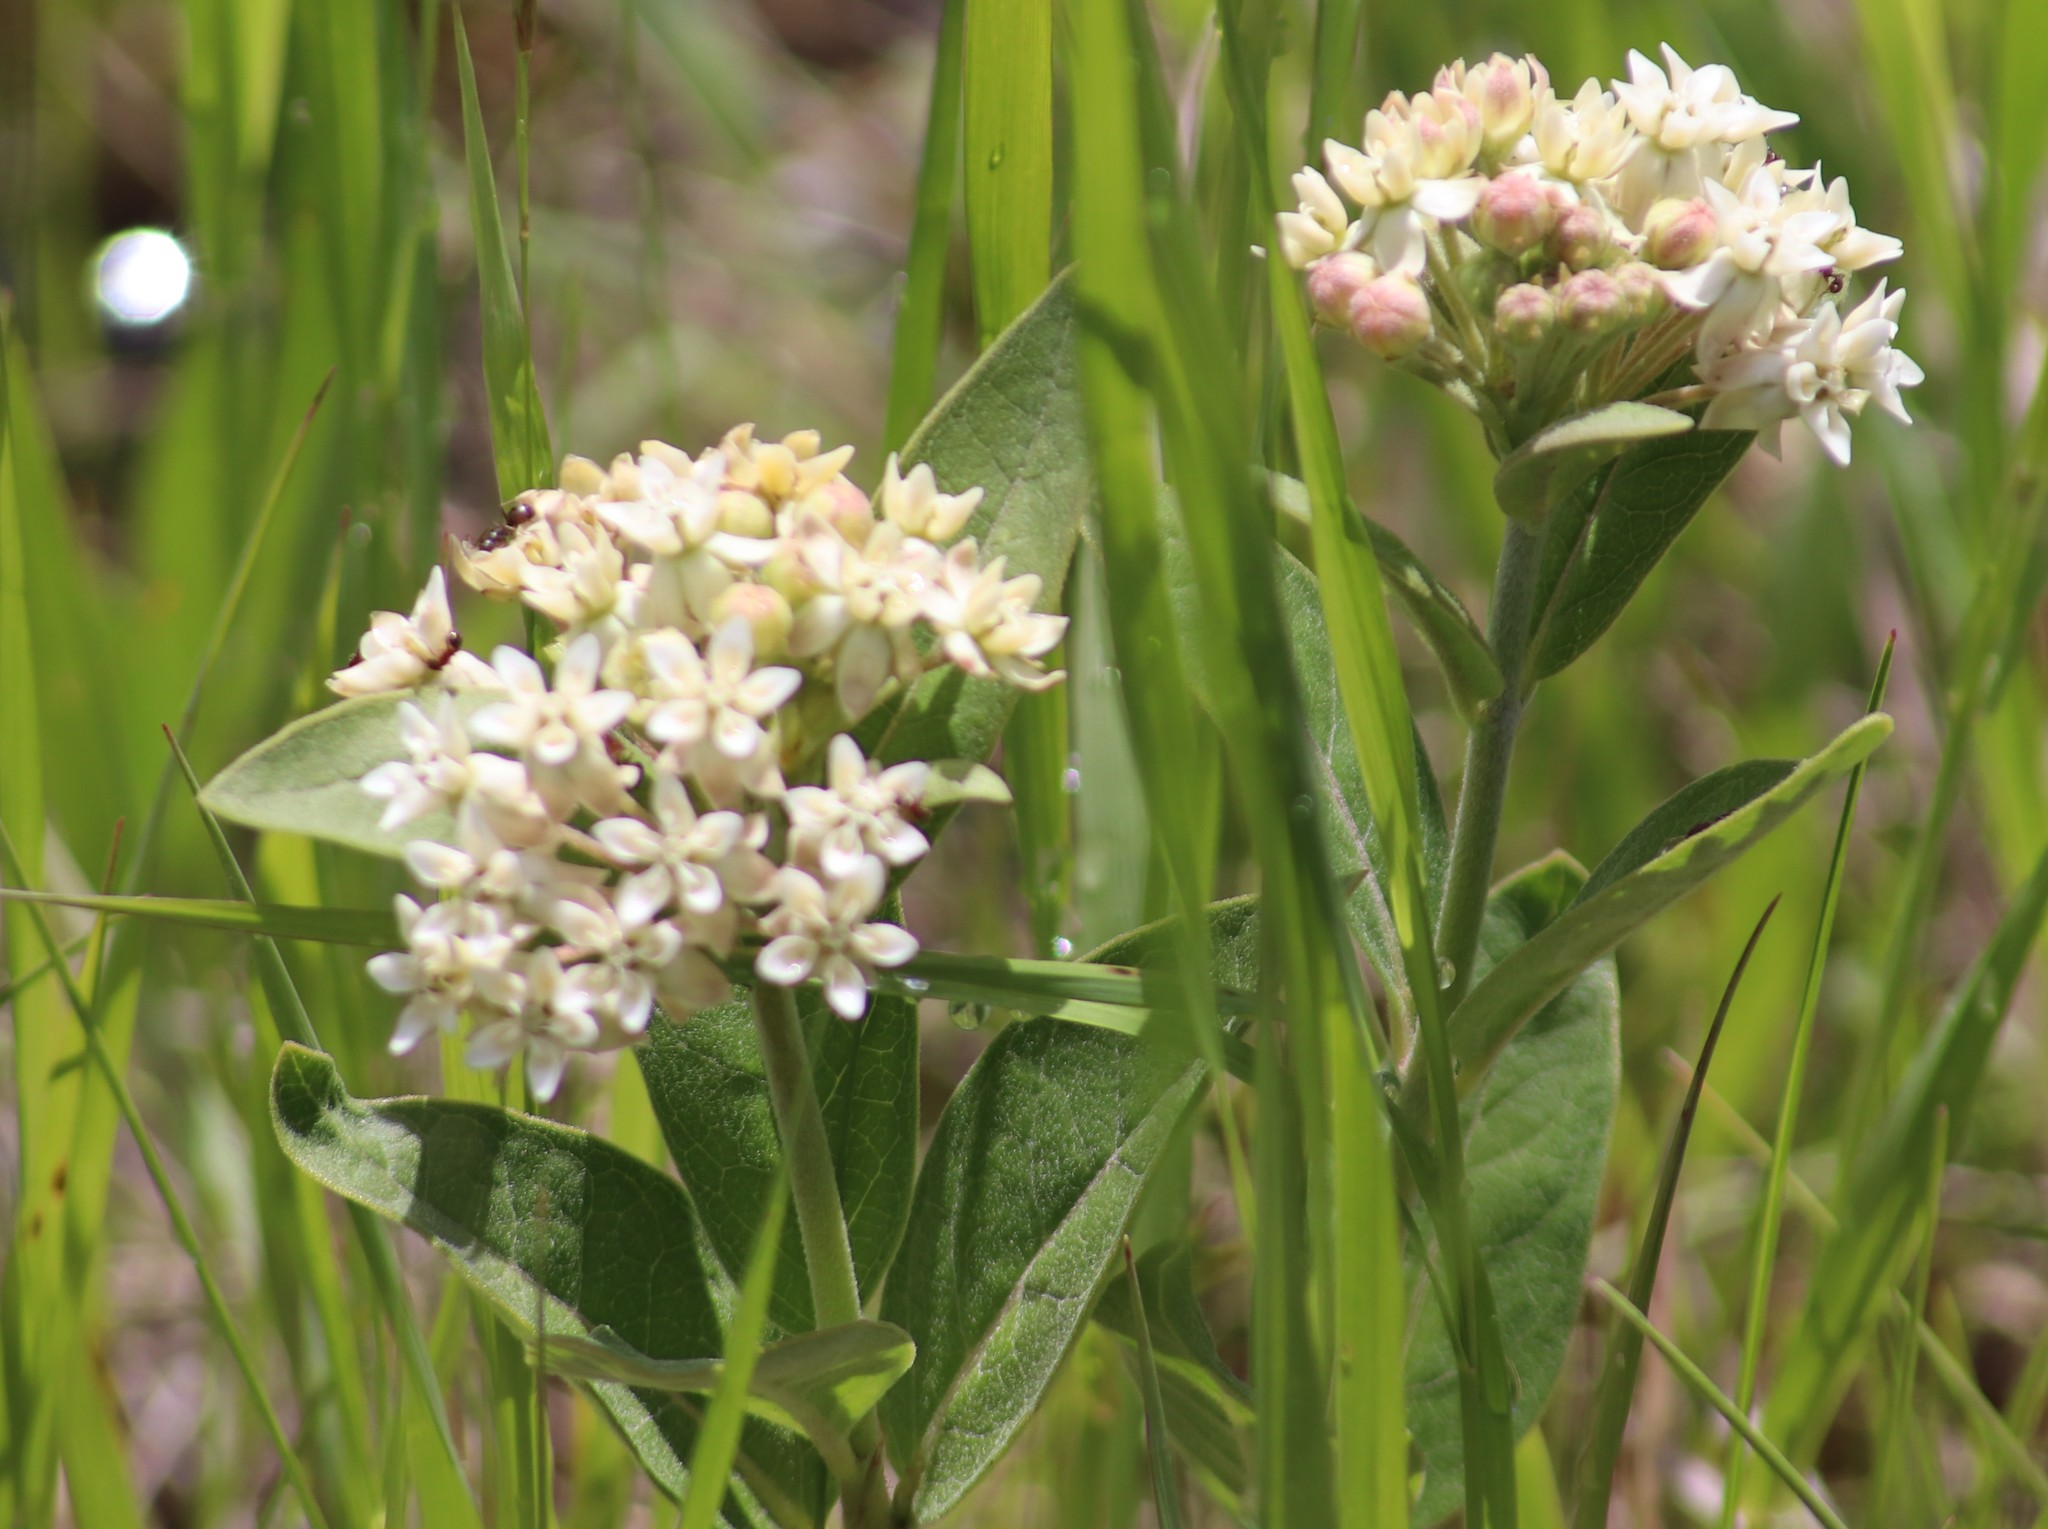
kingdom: Plantae
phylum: Tracheophyta
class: Magnoliopsida
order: Gentianales
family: Apocynaceae
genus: Asclepias
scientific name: Asclepias ovalifolia
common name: Dwarf milkweed
